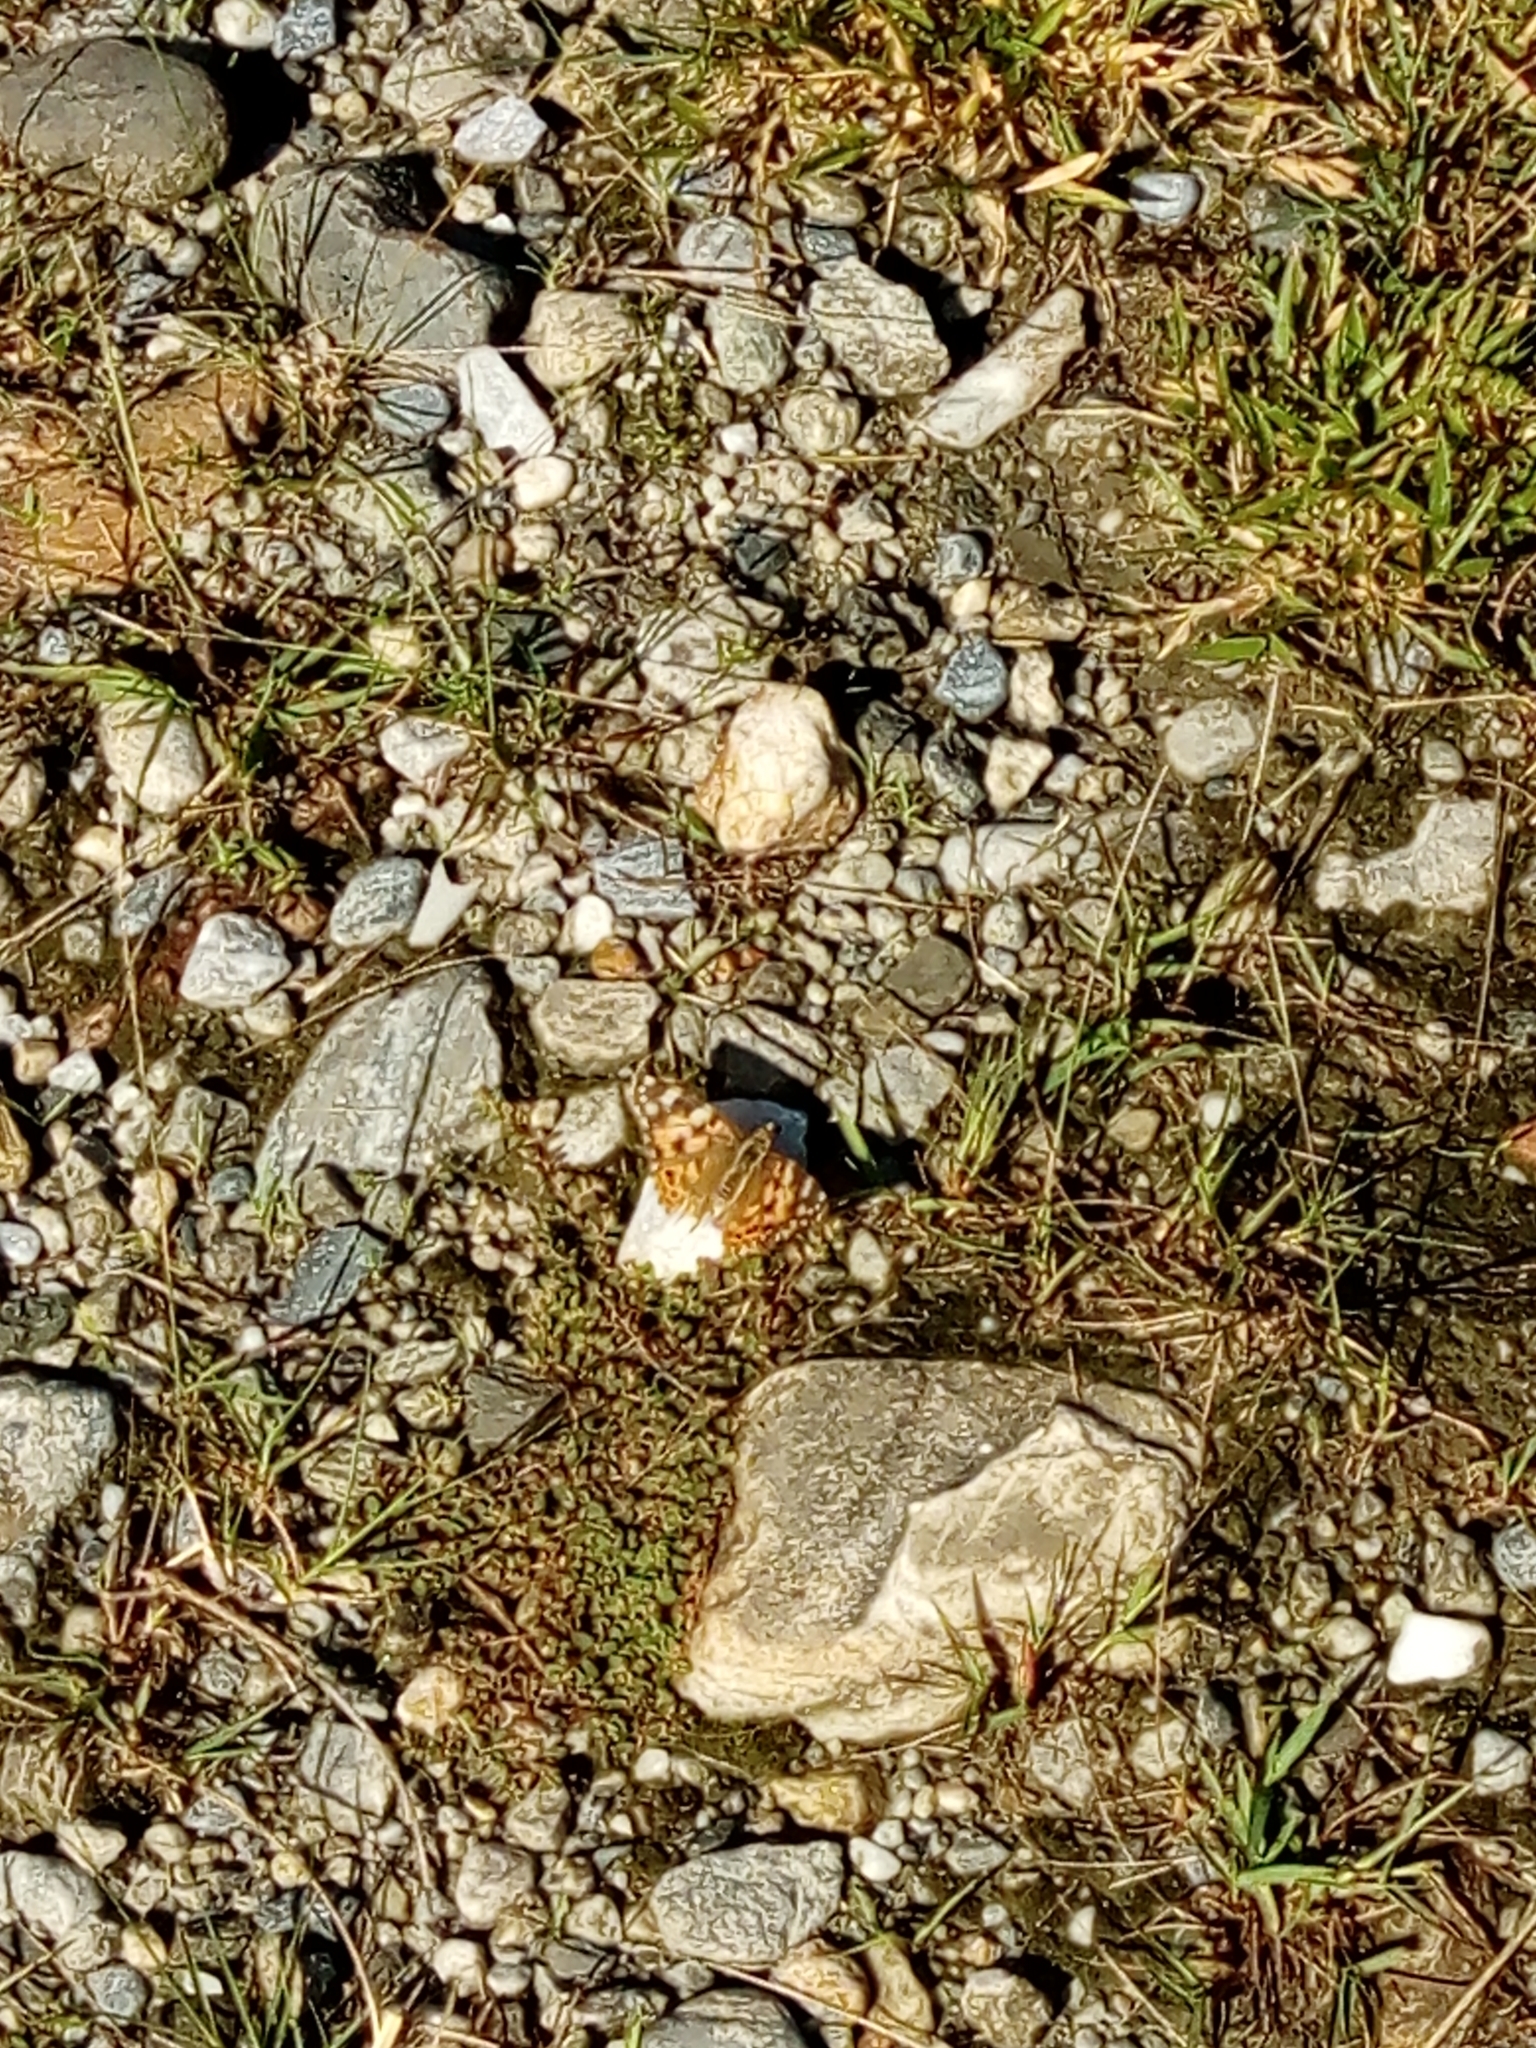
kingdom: Animalia
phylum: Arthropoda
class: Insecta
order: Lepidoptera
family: Nymphalidae
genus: Vanessa
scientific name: Vanessa cardui
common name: Painted lady
